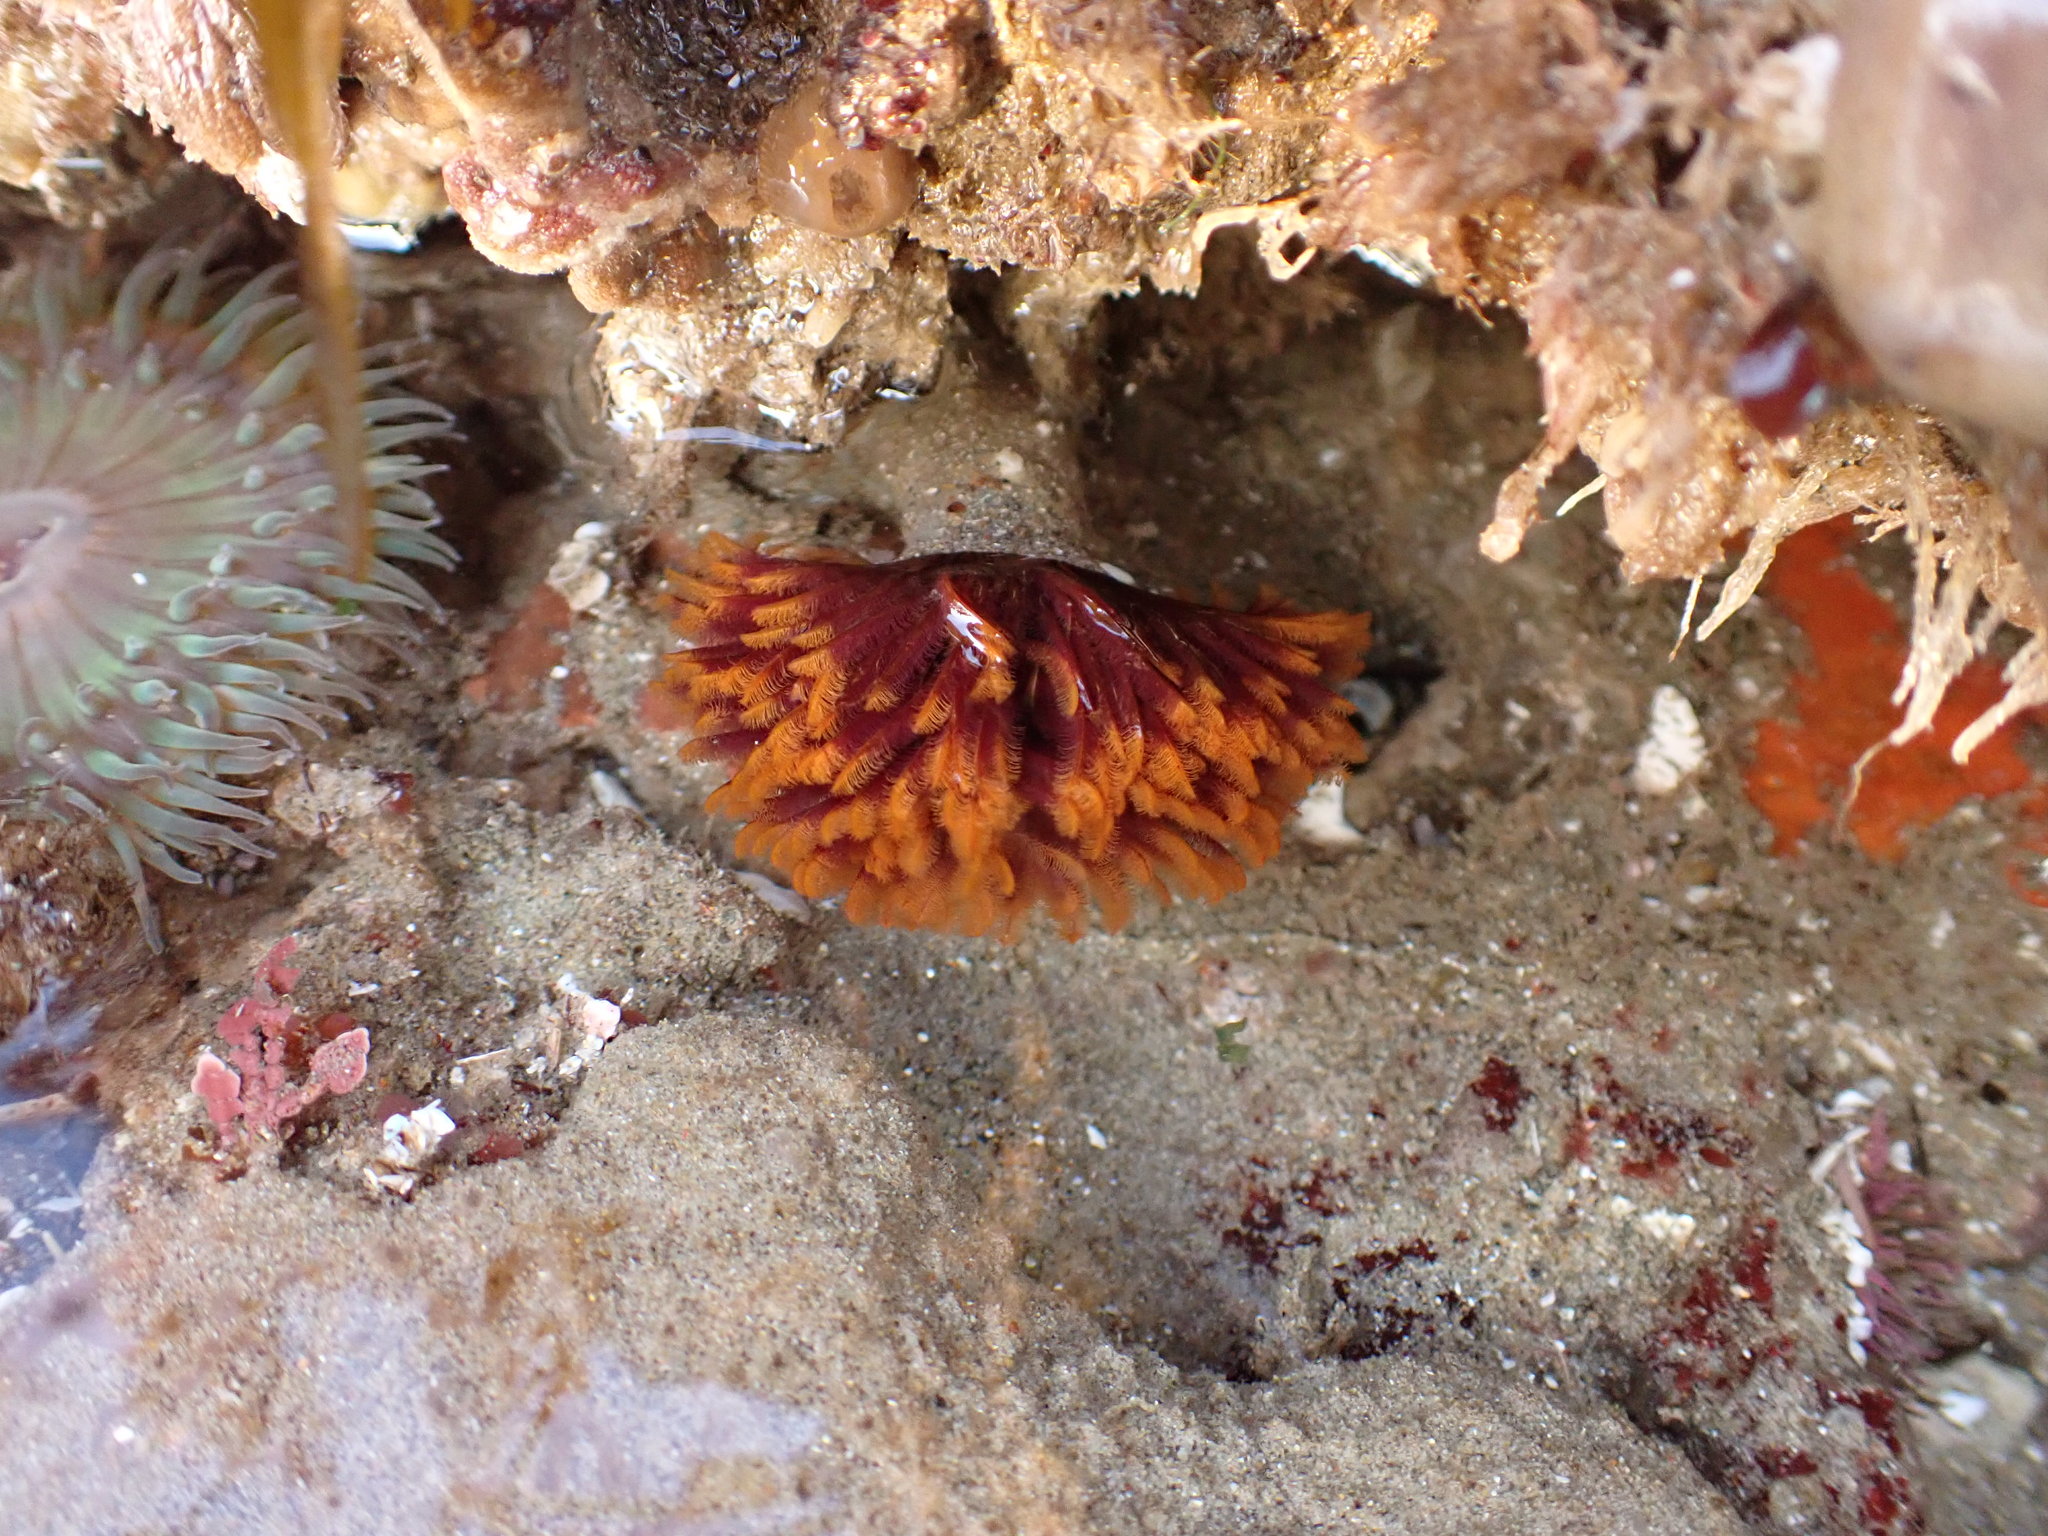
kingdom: Animalia
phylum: Annelida
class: Polychaeta
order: Sabellida
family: Sabellidae
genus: Eudistylia
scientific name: Eudistylia polymorpha
